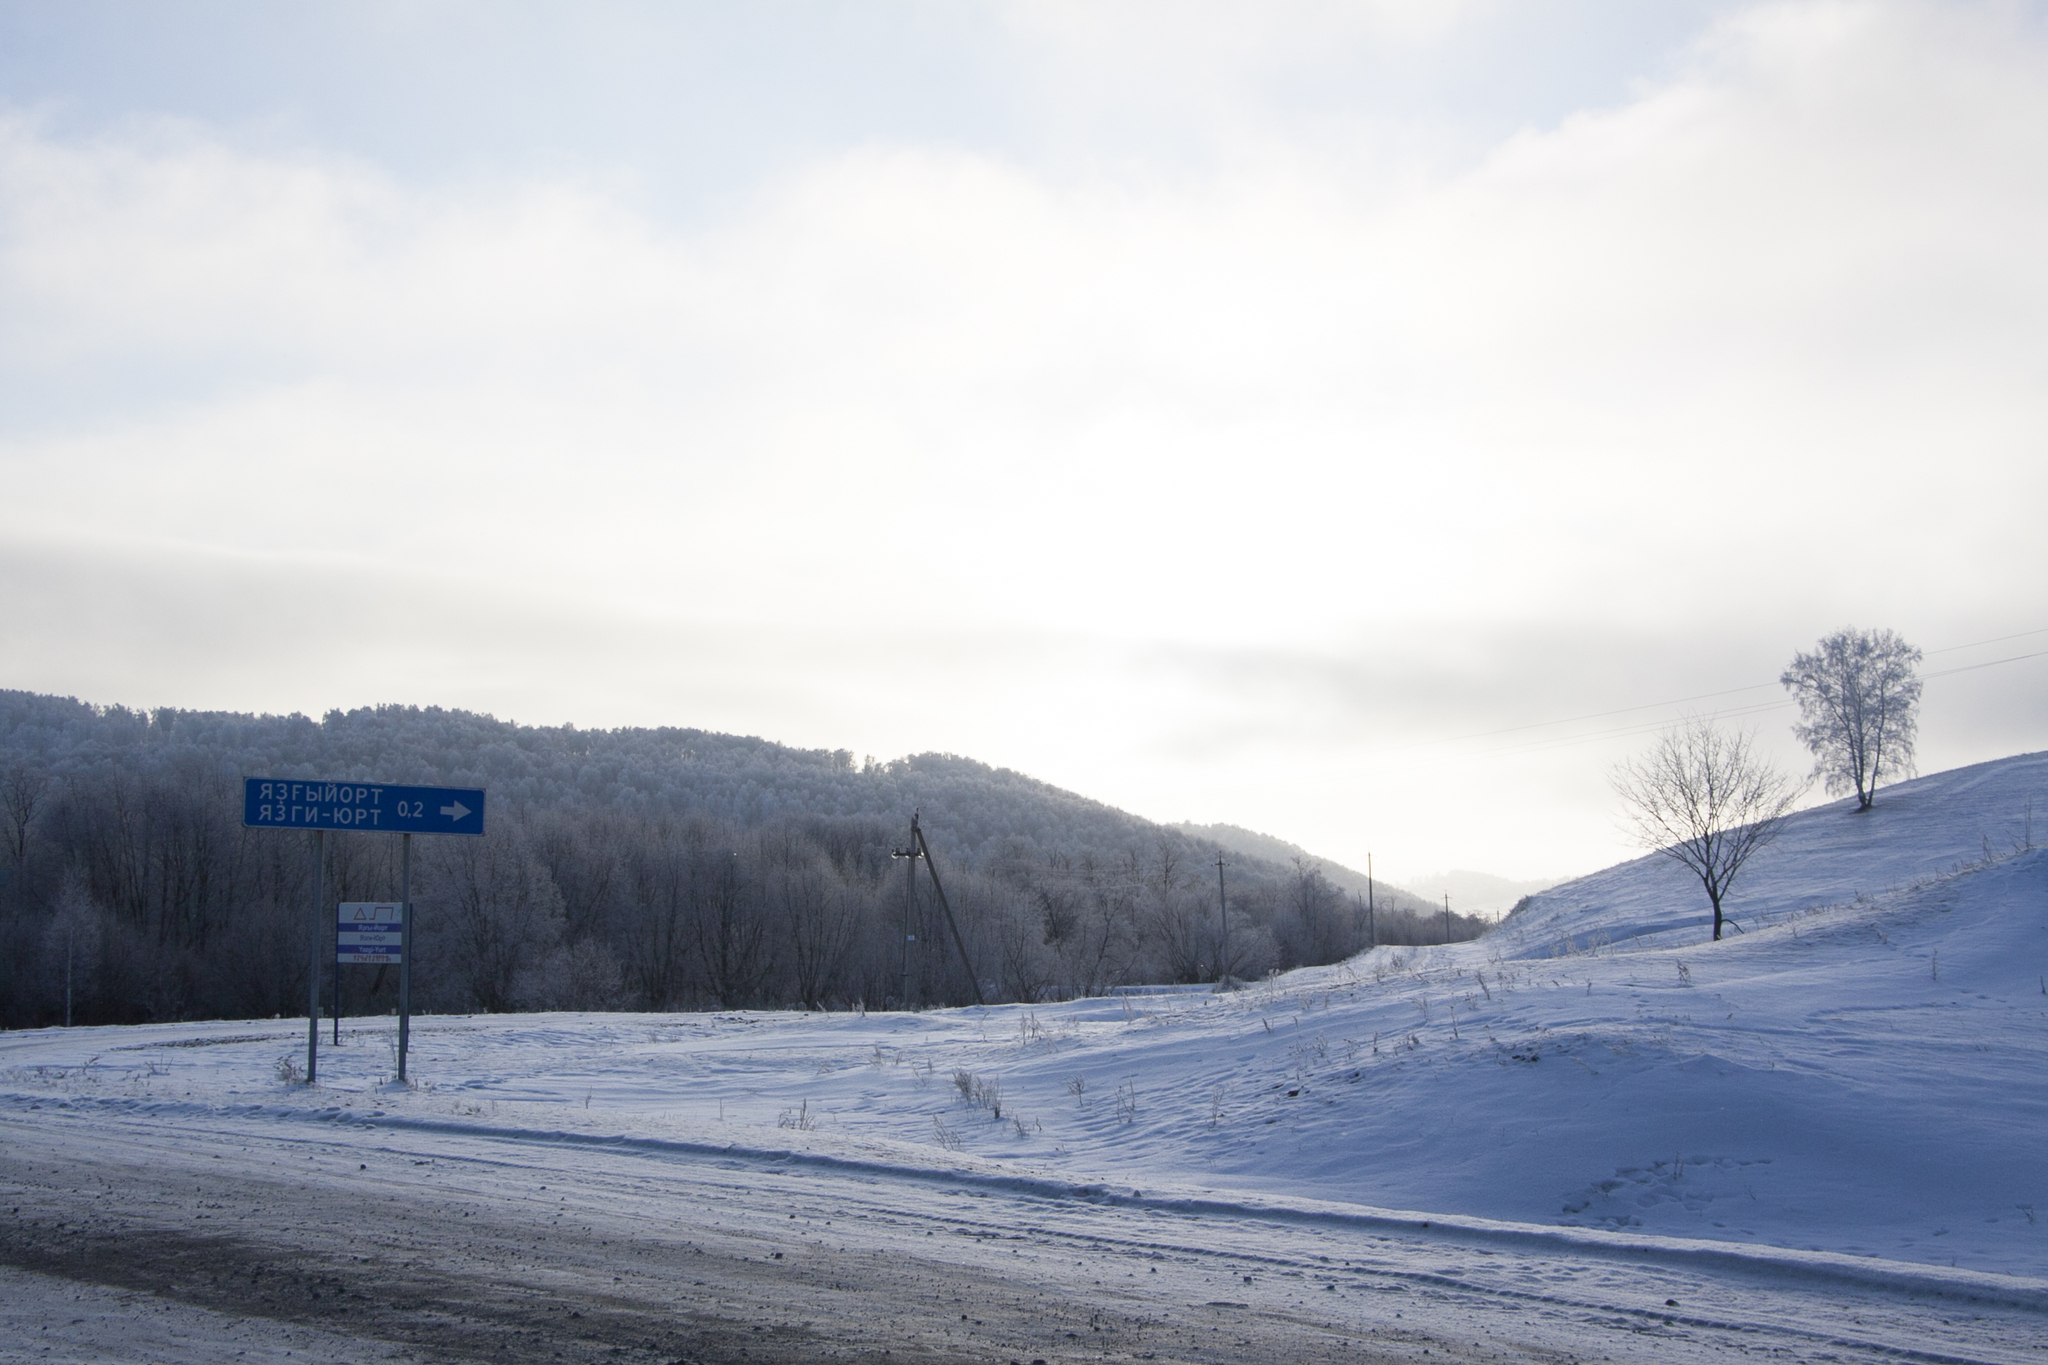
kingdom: Plantae
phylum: Tracheophyta
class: Magnoliopsida
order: Fagales
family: Betulaceae
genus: Betula
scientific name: Betula pendula
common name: Silver birch
